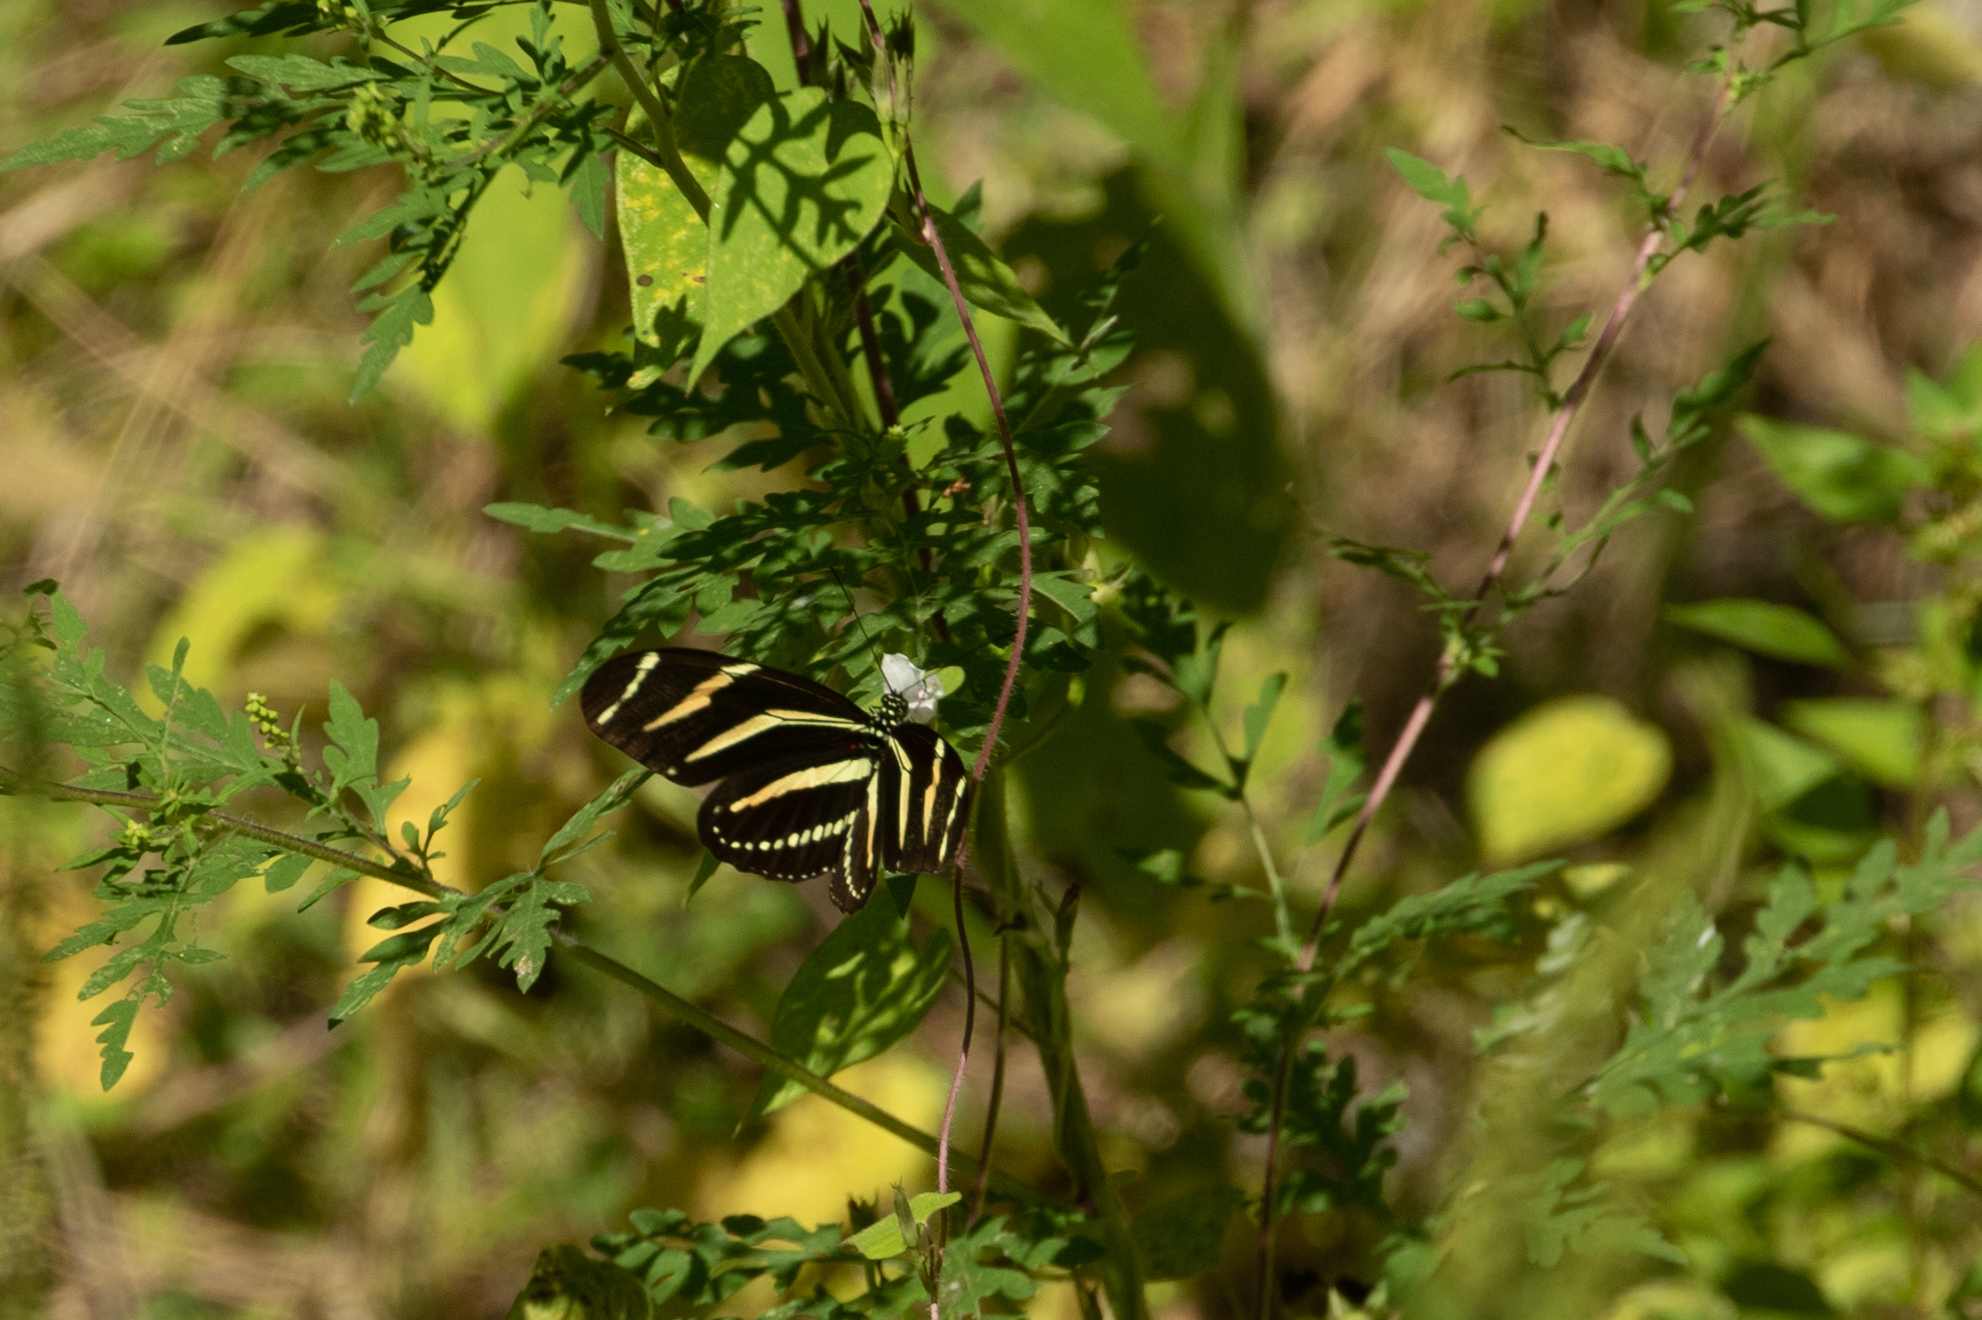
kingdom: Animalia
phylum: Arthropoda
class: Insecta
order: Lepidoptera
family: Nymphalidae
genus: Heliconius
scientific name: Heliconius charithonia
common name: Zebra long wing
